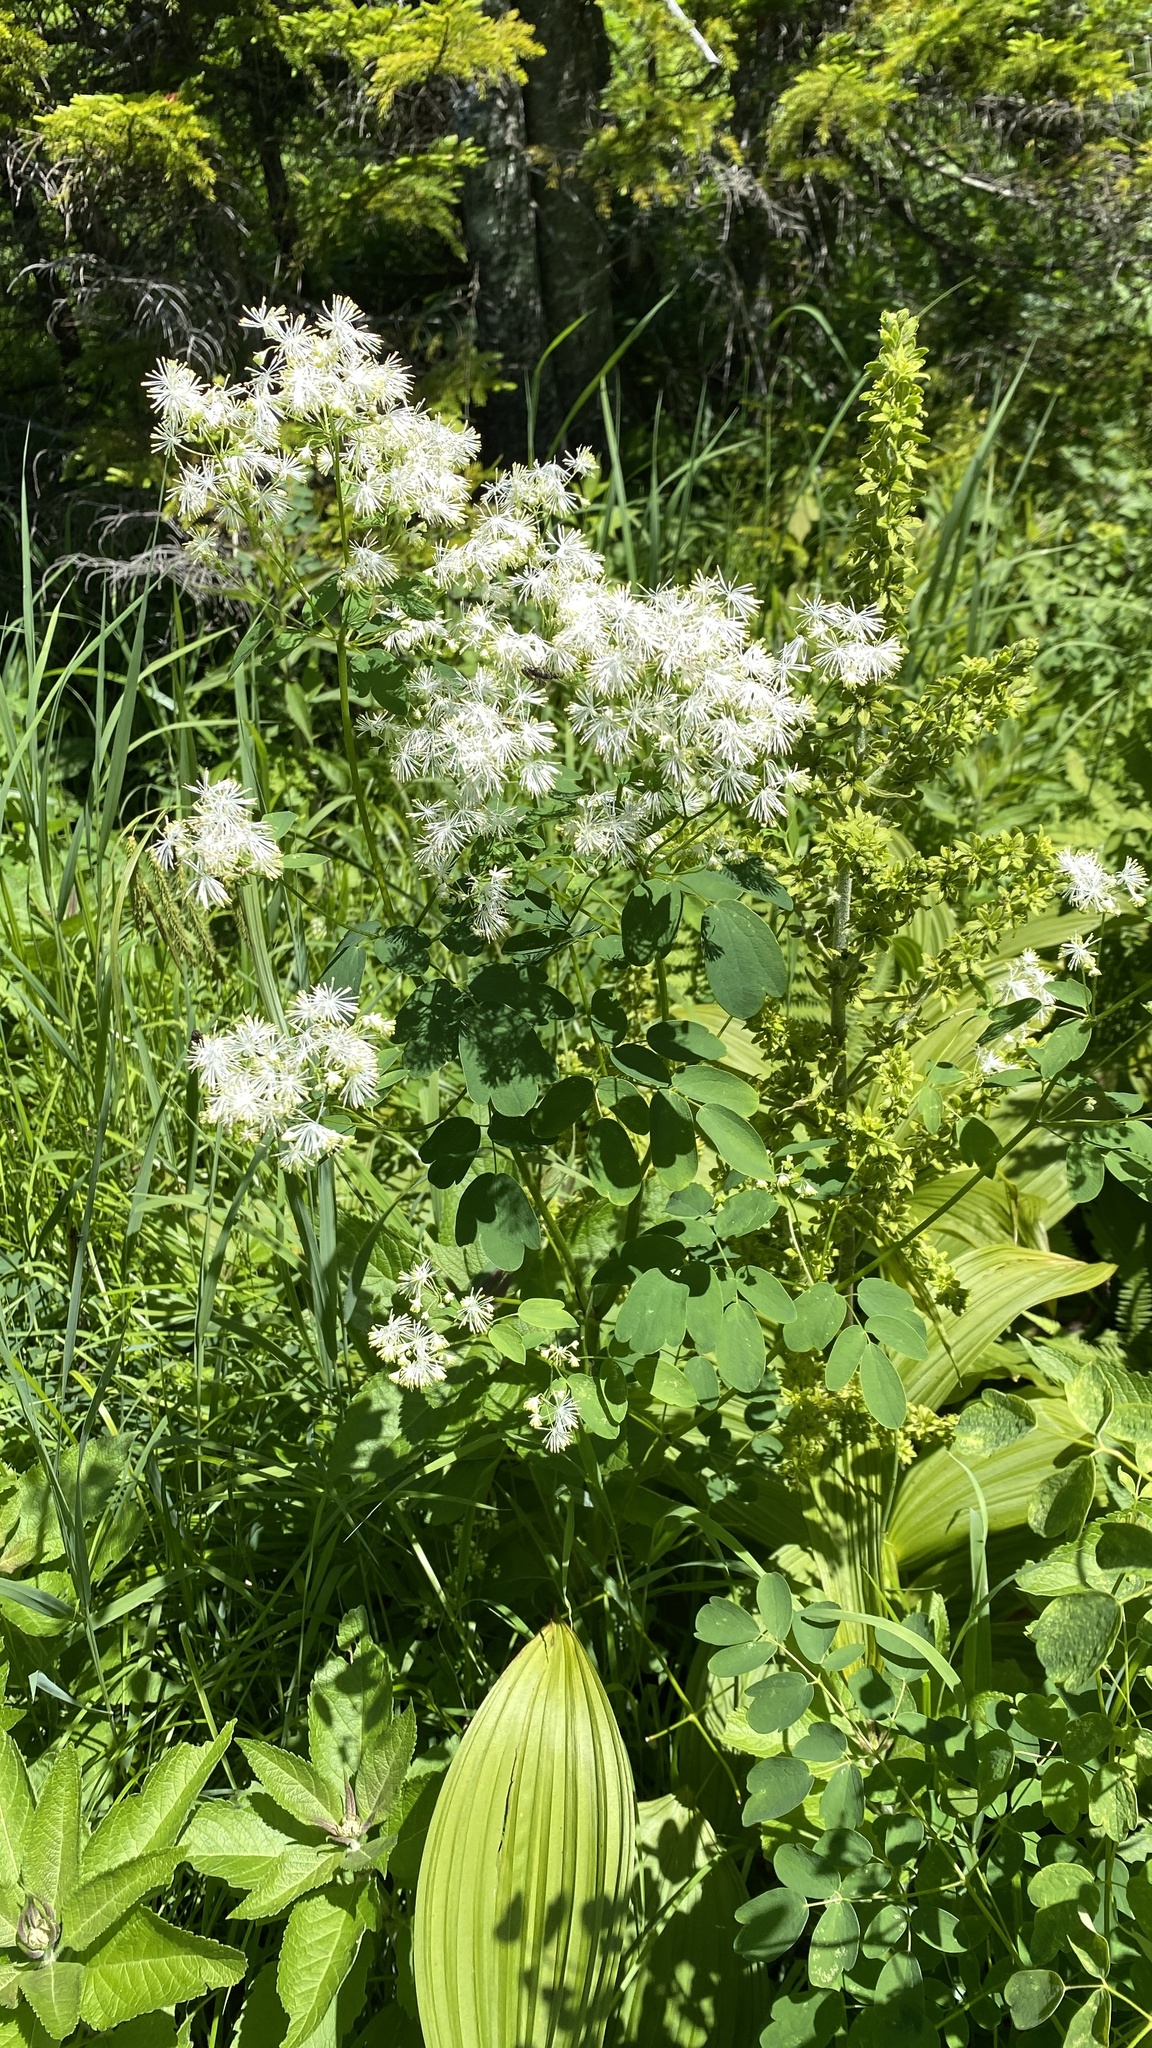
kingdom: Plantae
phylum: Tracheophyta
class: Magnoliopsida
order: Ranunculales
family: Ranunculaceae
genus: Thalictrum
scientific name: Thalictrum pubescens
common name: King-of-the-meadow
